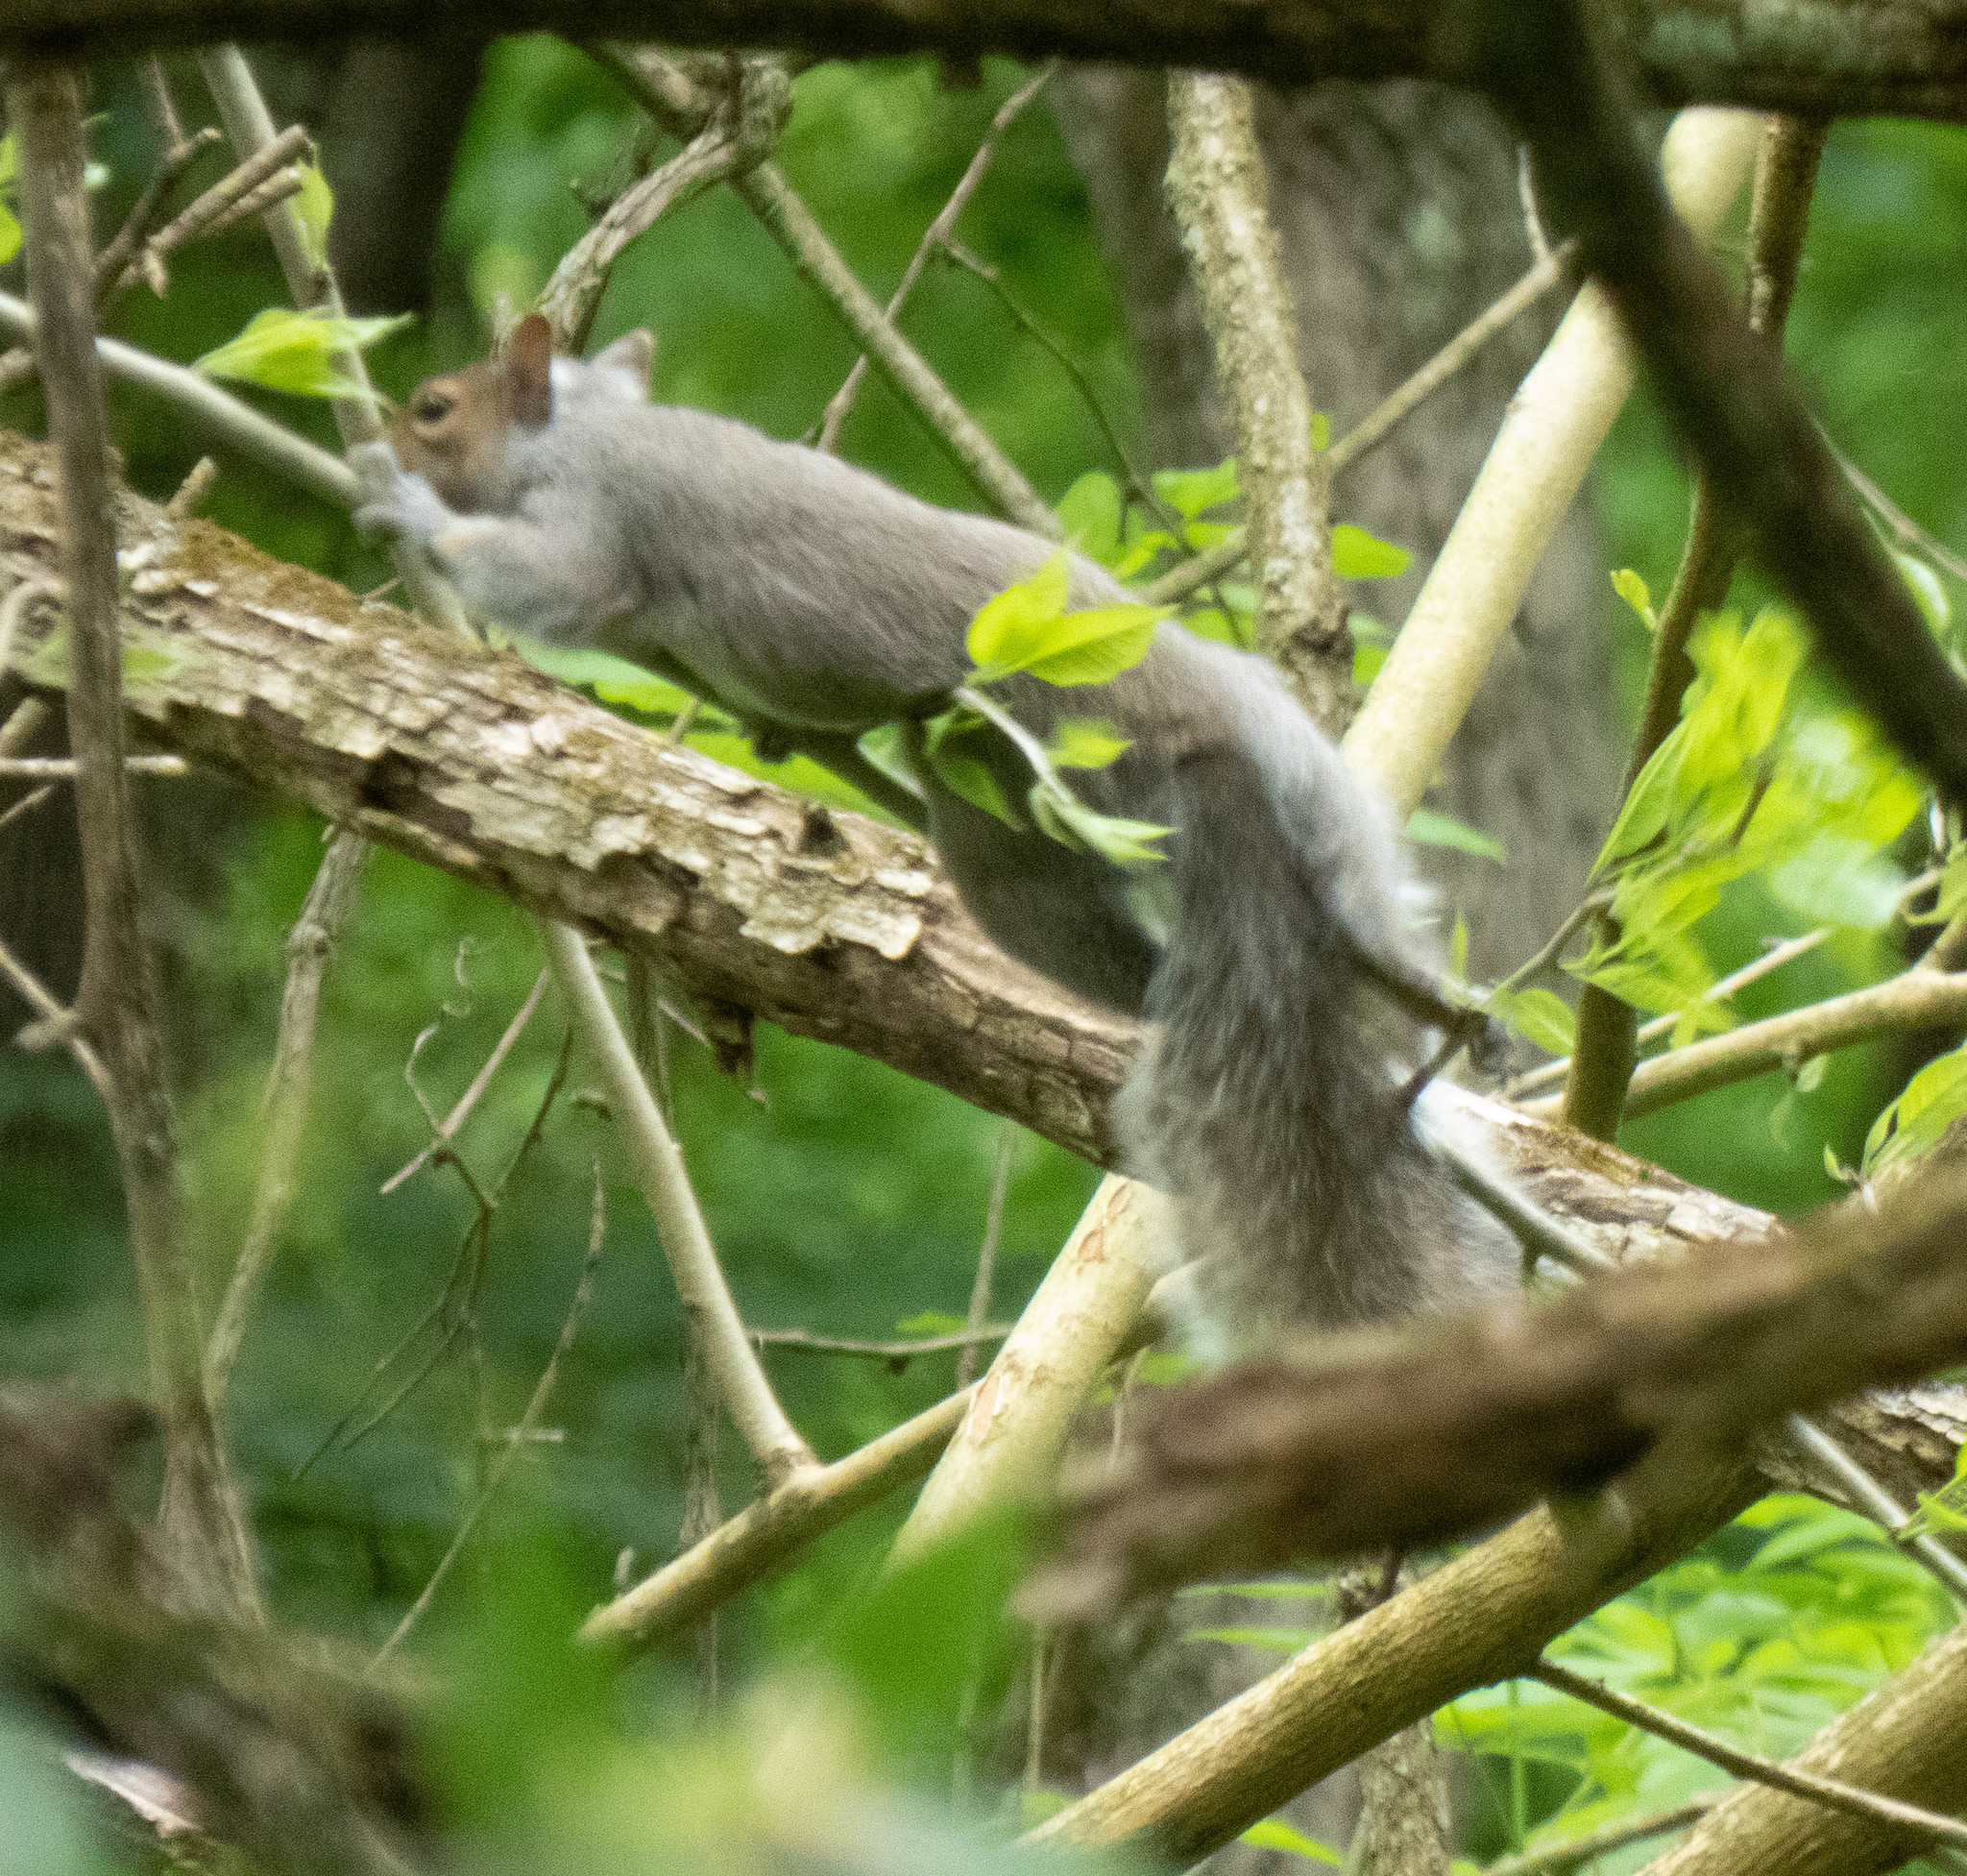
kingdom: Animalia
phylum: Chordata
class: Mammalia
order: Rodentia
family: Sciuridae
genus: Sciurus
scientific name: Sciurus carolinensis
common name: Eastern gray squirrel
